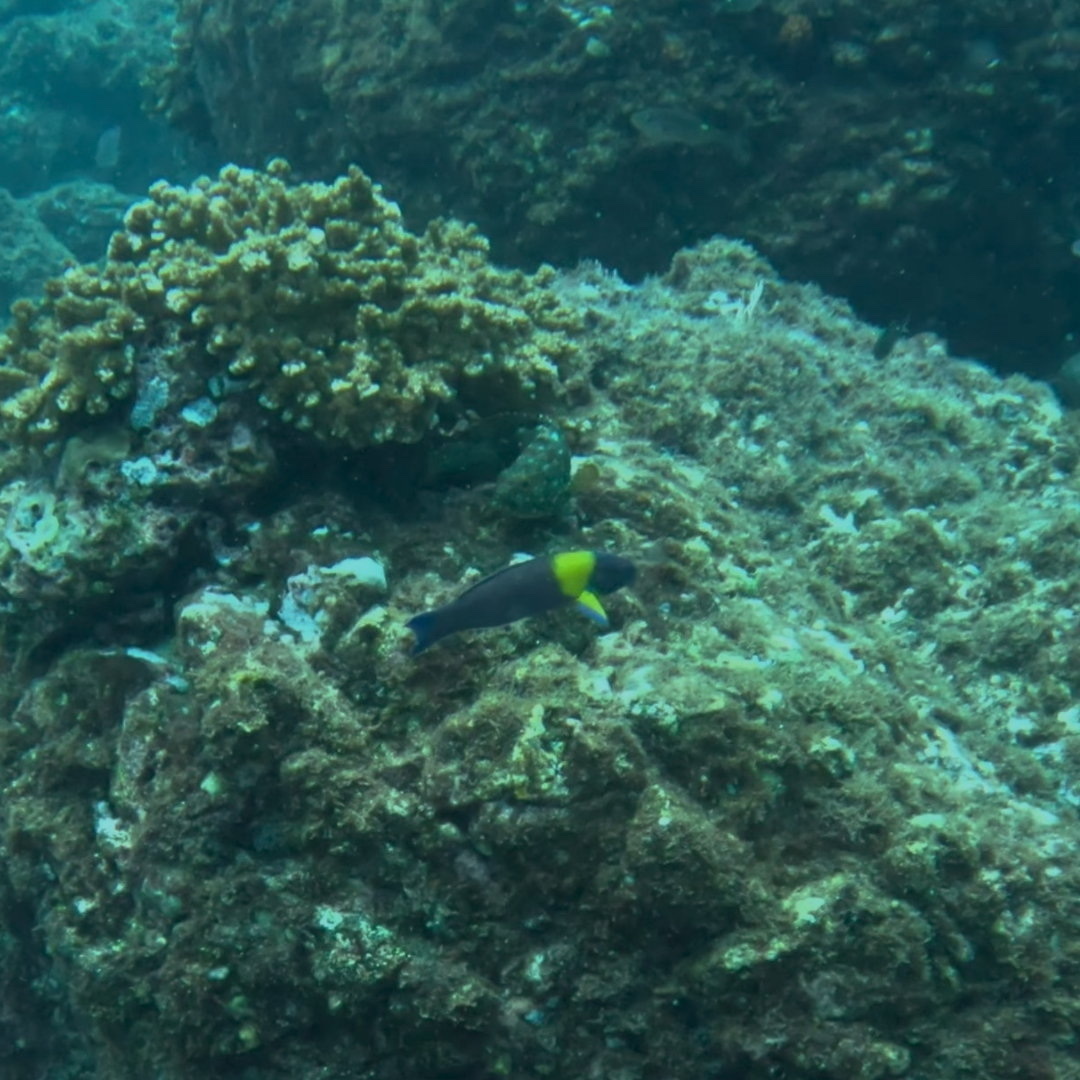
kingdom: Animalia
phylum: Chordata
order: Perciformes
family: Labridae
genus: Thalassoma
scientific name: Thalassoma lucasanum
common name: Cortez rainbow wrasse
